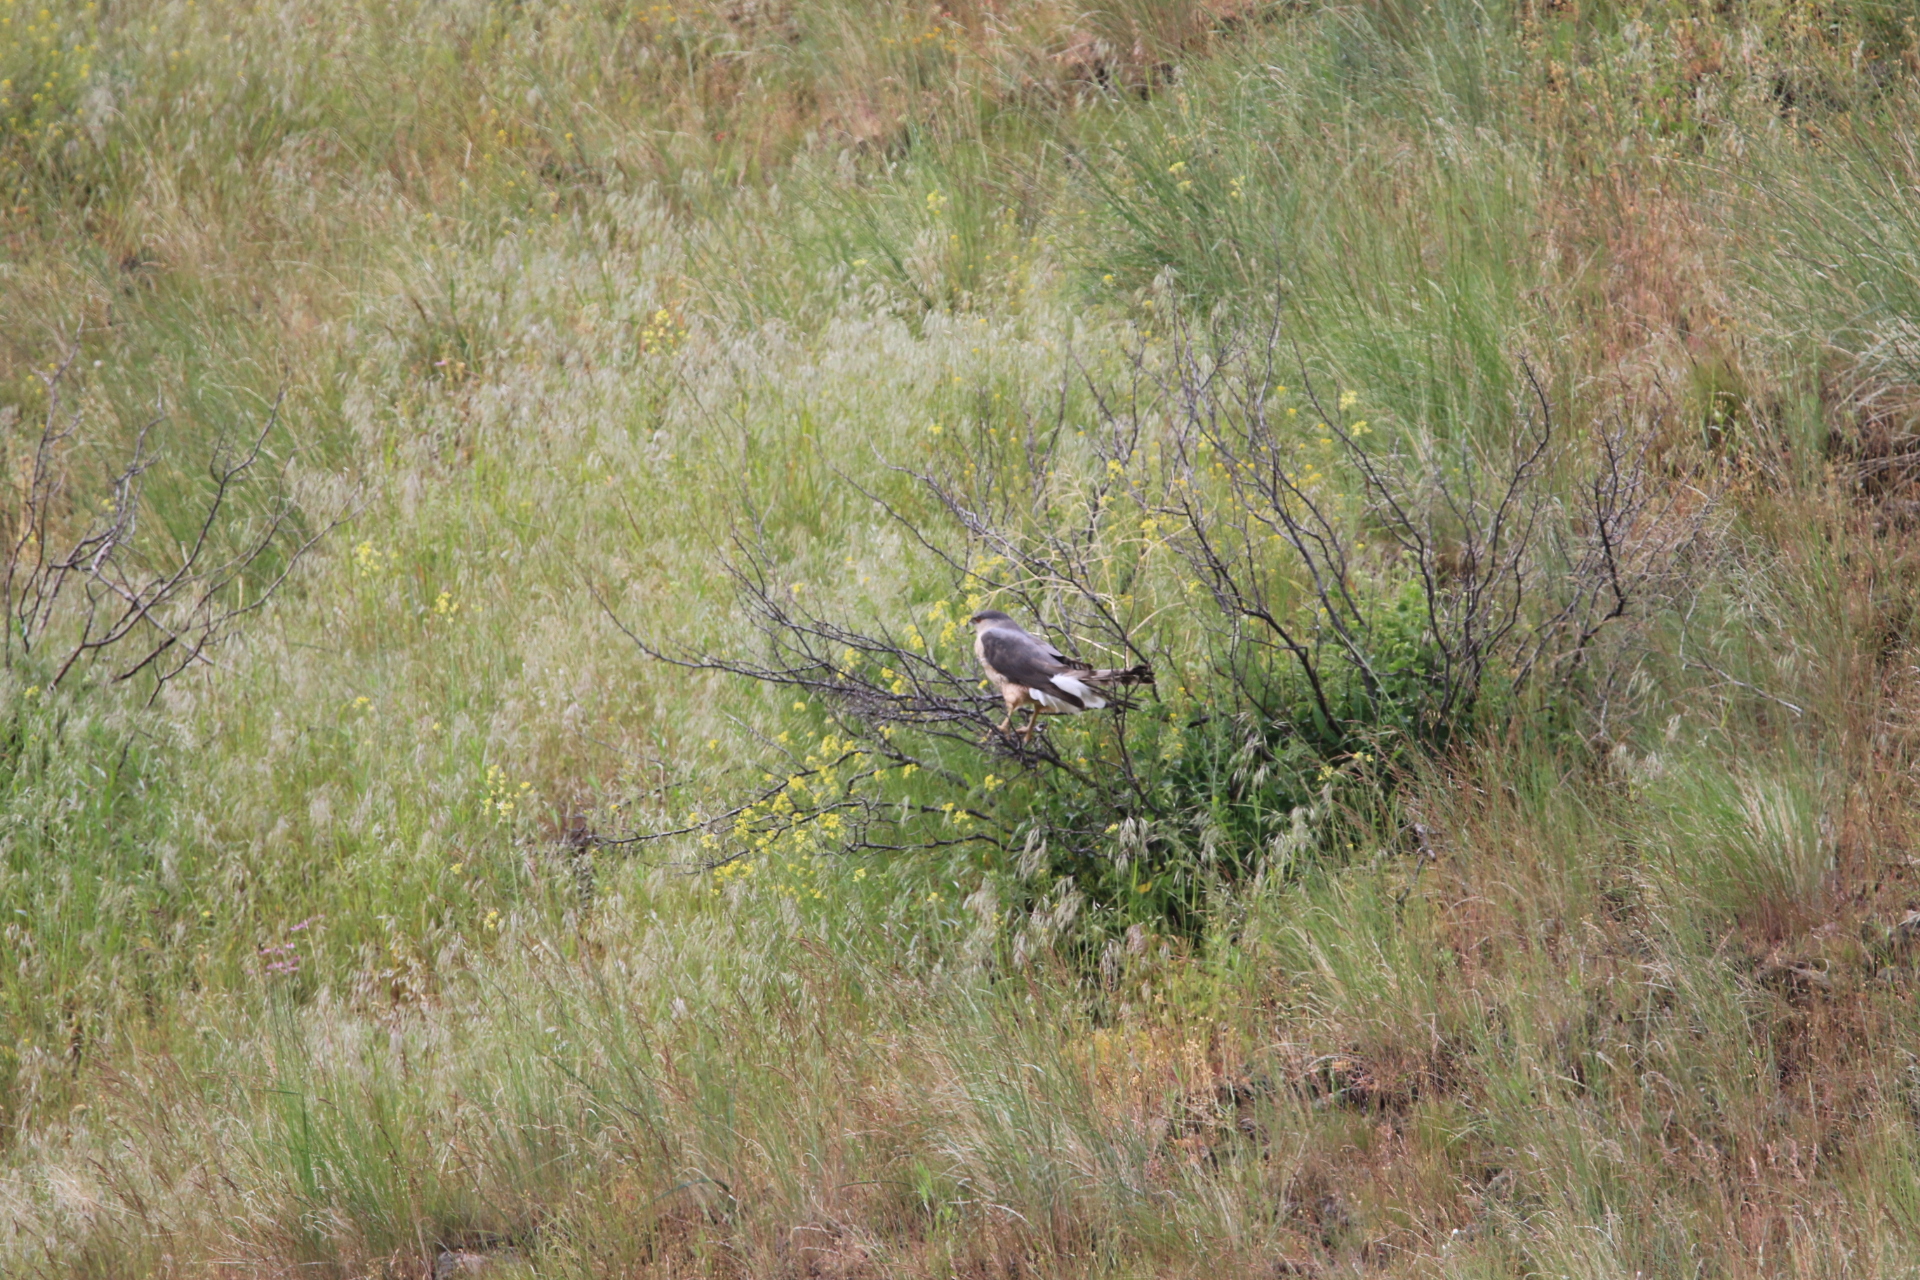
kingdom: Animalia
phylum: Chordata
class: Aves
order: Accipitriformes
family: Accipitridae
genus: Accipiter
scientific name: Accipiter cooperii
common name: Cooper's hawk
